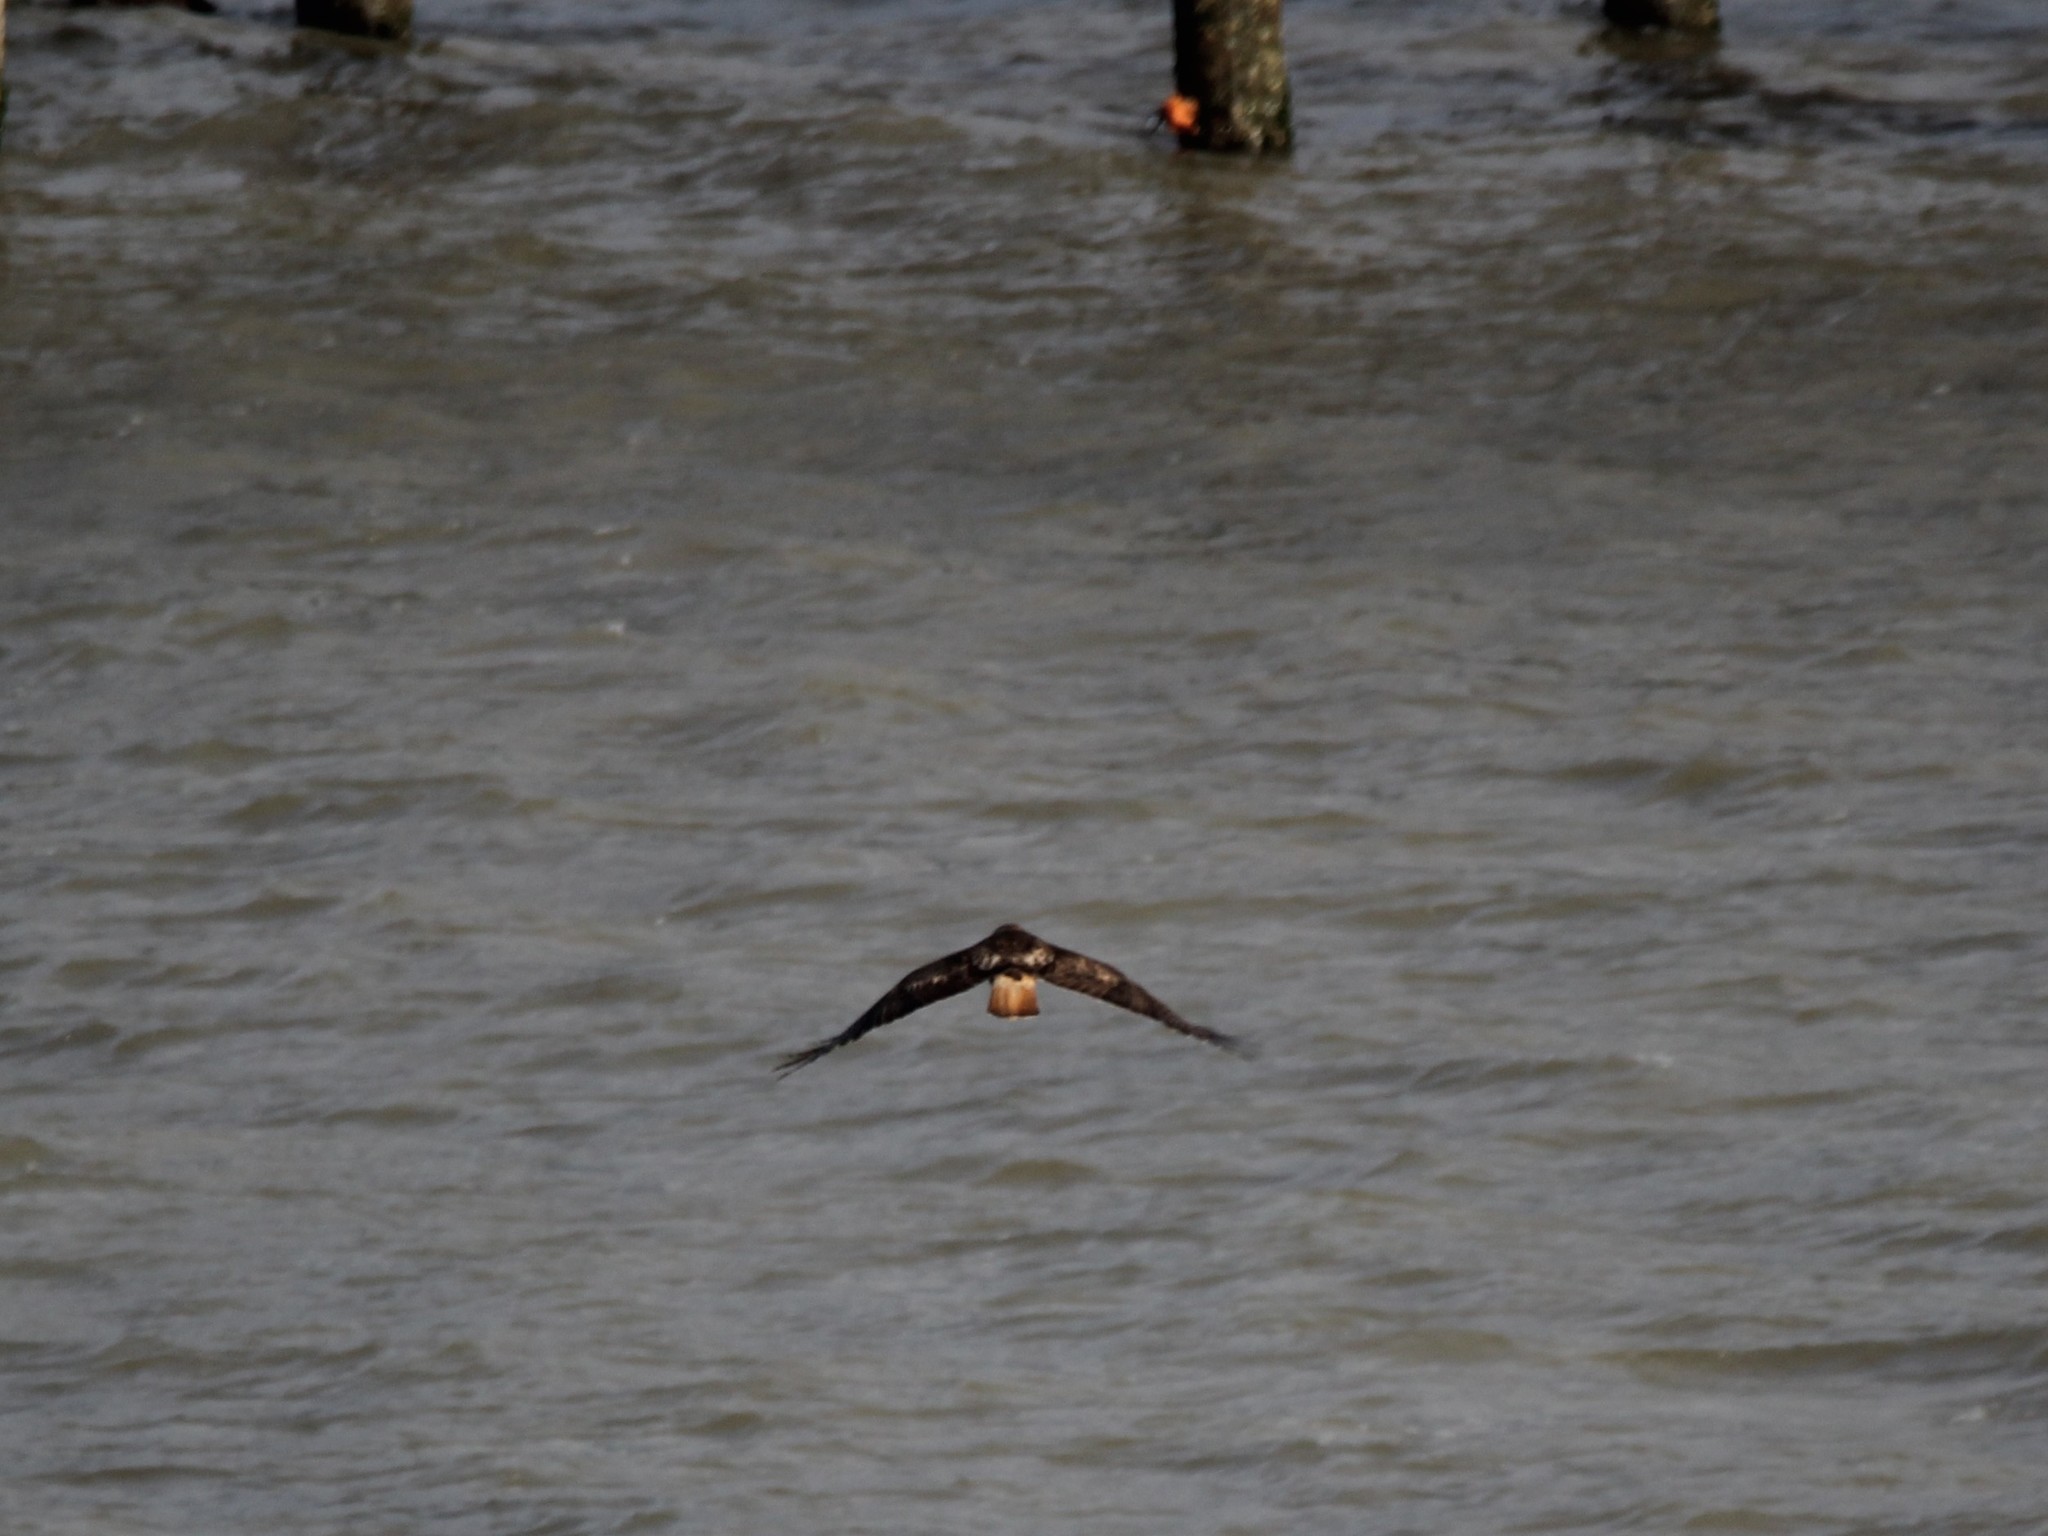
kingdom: Animalia
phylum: Chordata
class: Aves
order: Accipitriformes
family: Accipitridae
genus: Buteo
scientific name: Buteo jamaicensis
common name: Red-tailed hawk
